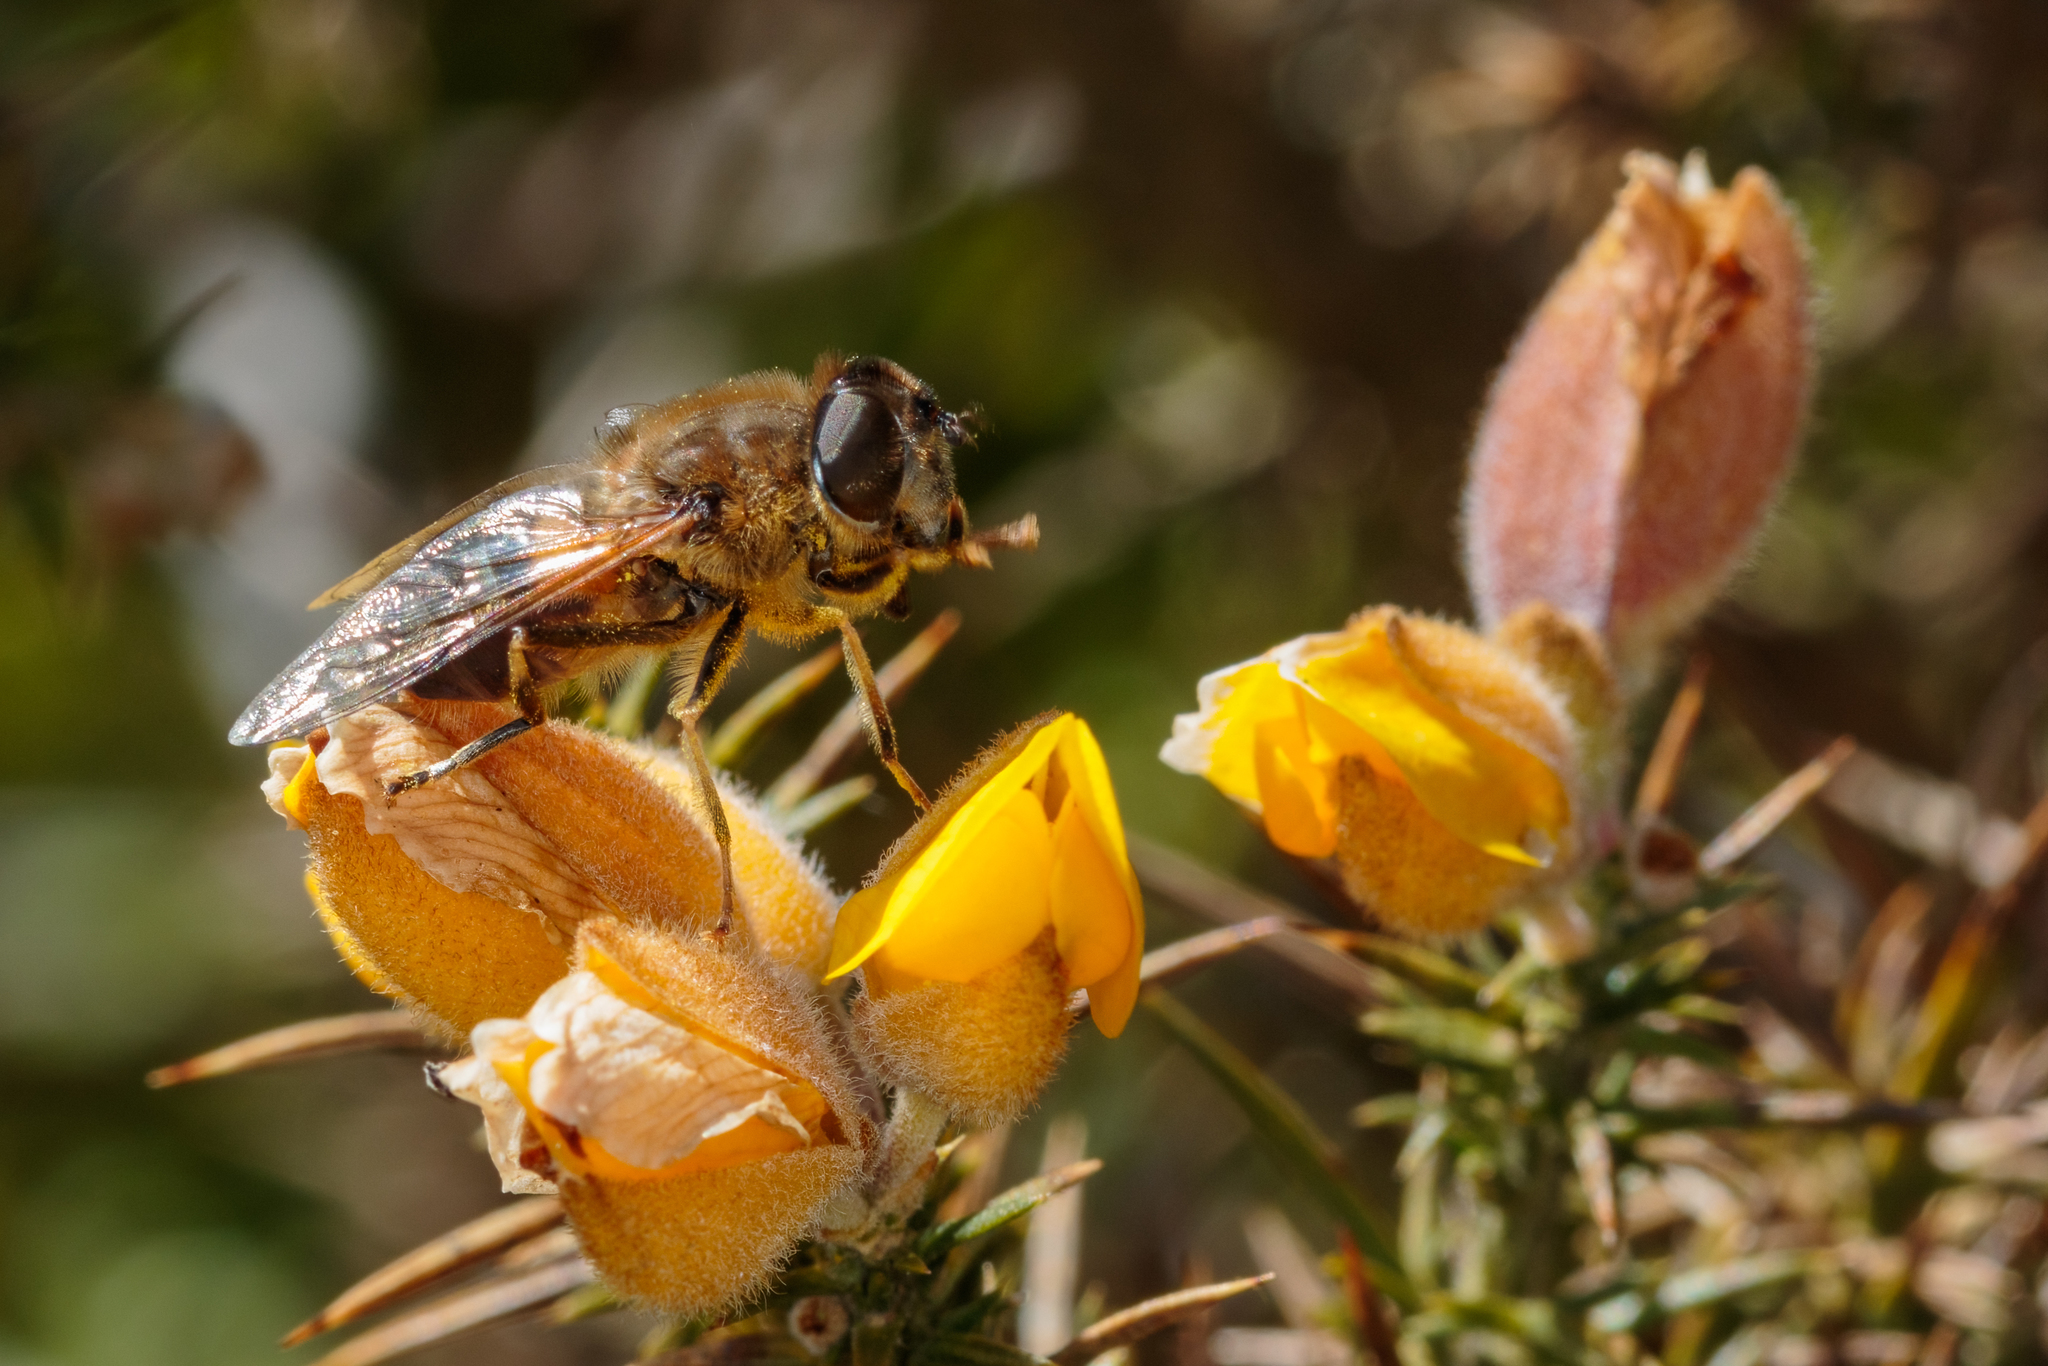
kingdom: Animalia
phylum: Arthropoda
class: Insecta
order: Diptera
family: Syrphidae
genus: Eristalis
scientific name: Eristalis pertinax
